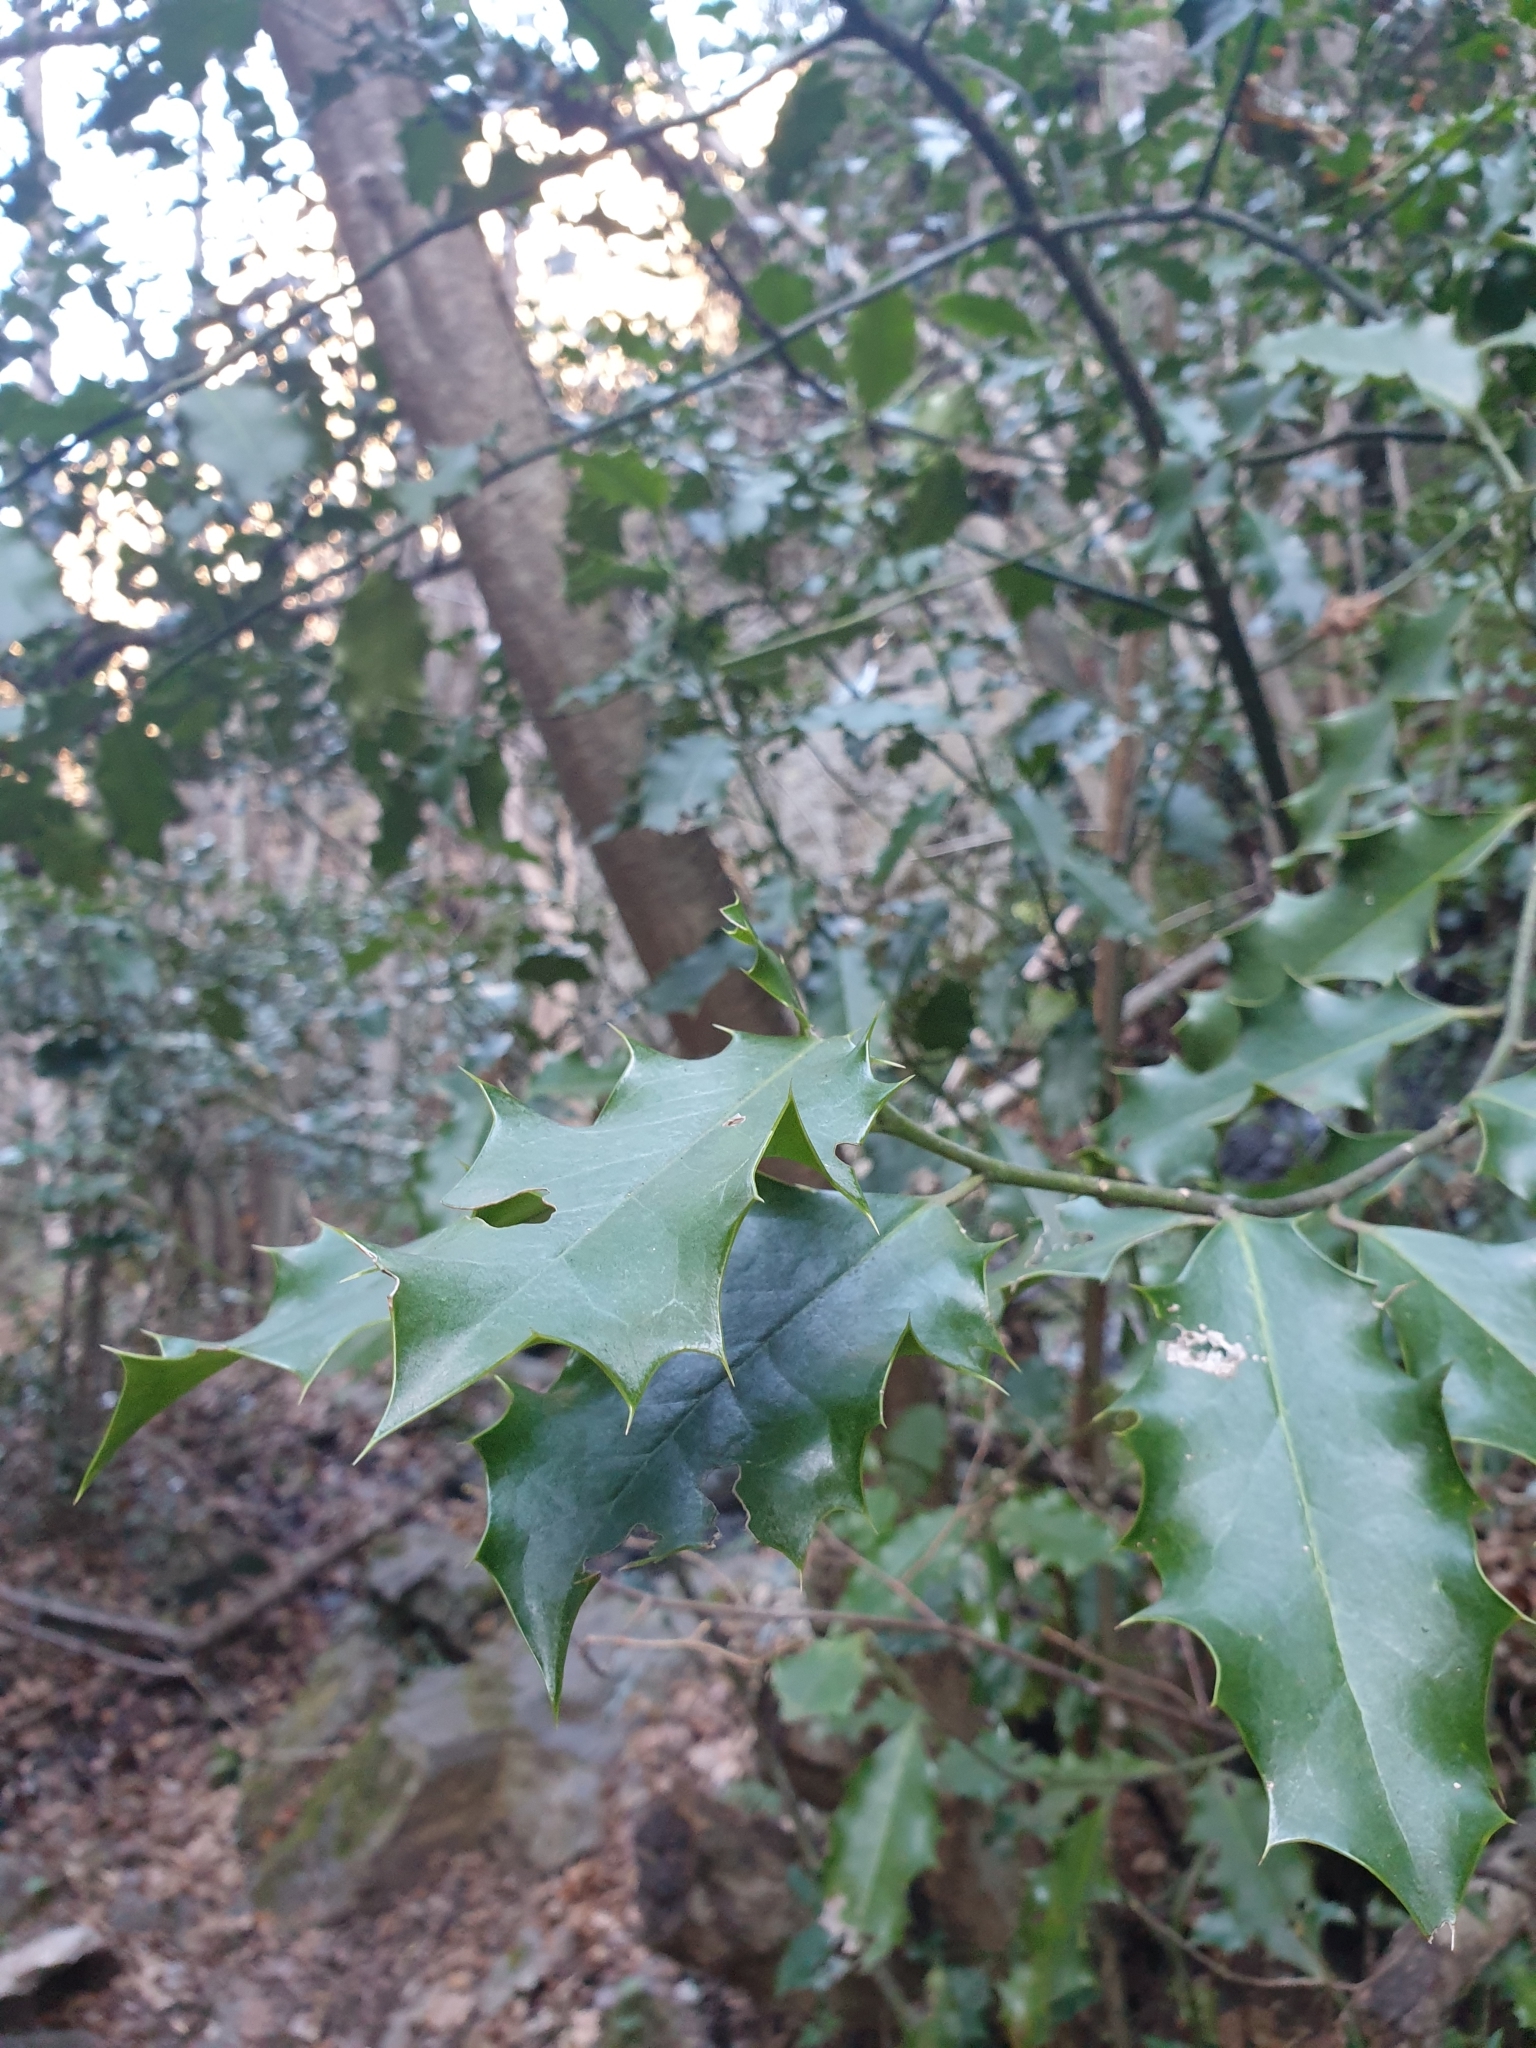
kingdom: Plantae
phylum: Tracheophyta
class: Magnoliopsida
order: Aquifoliales
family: Aquifoliaceae
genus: Ilex
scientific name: Ilex aquifolium
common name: English holly
